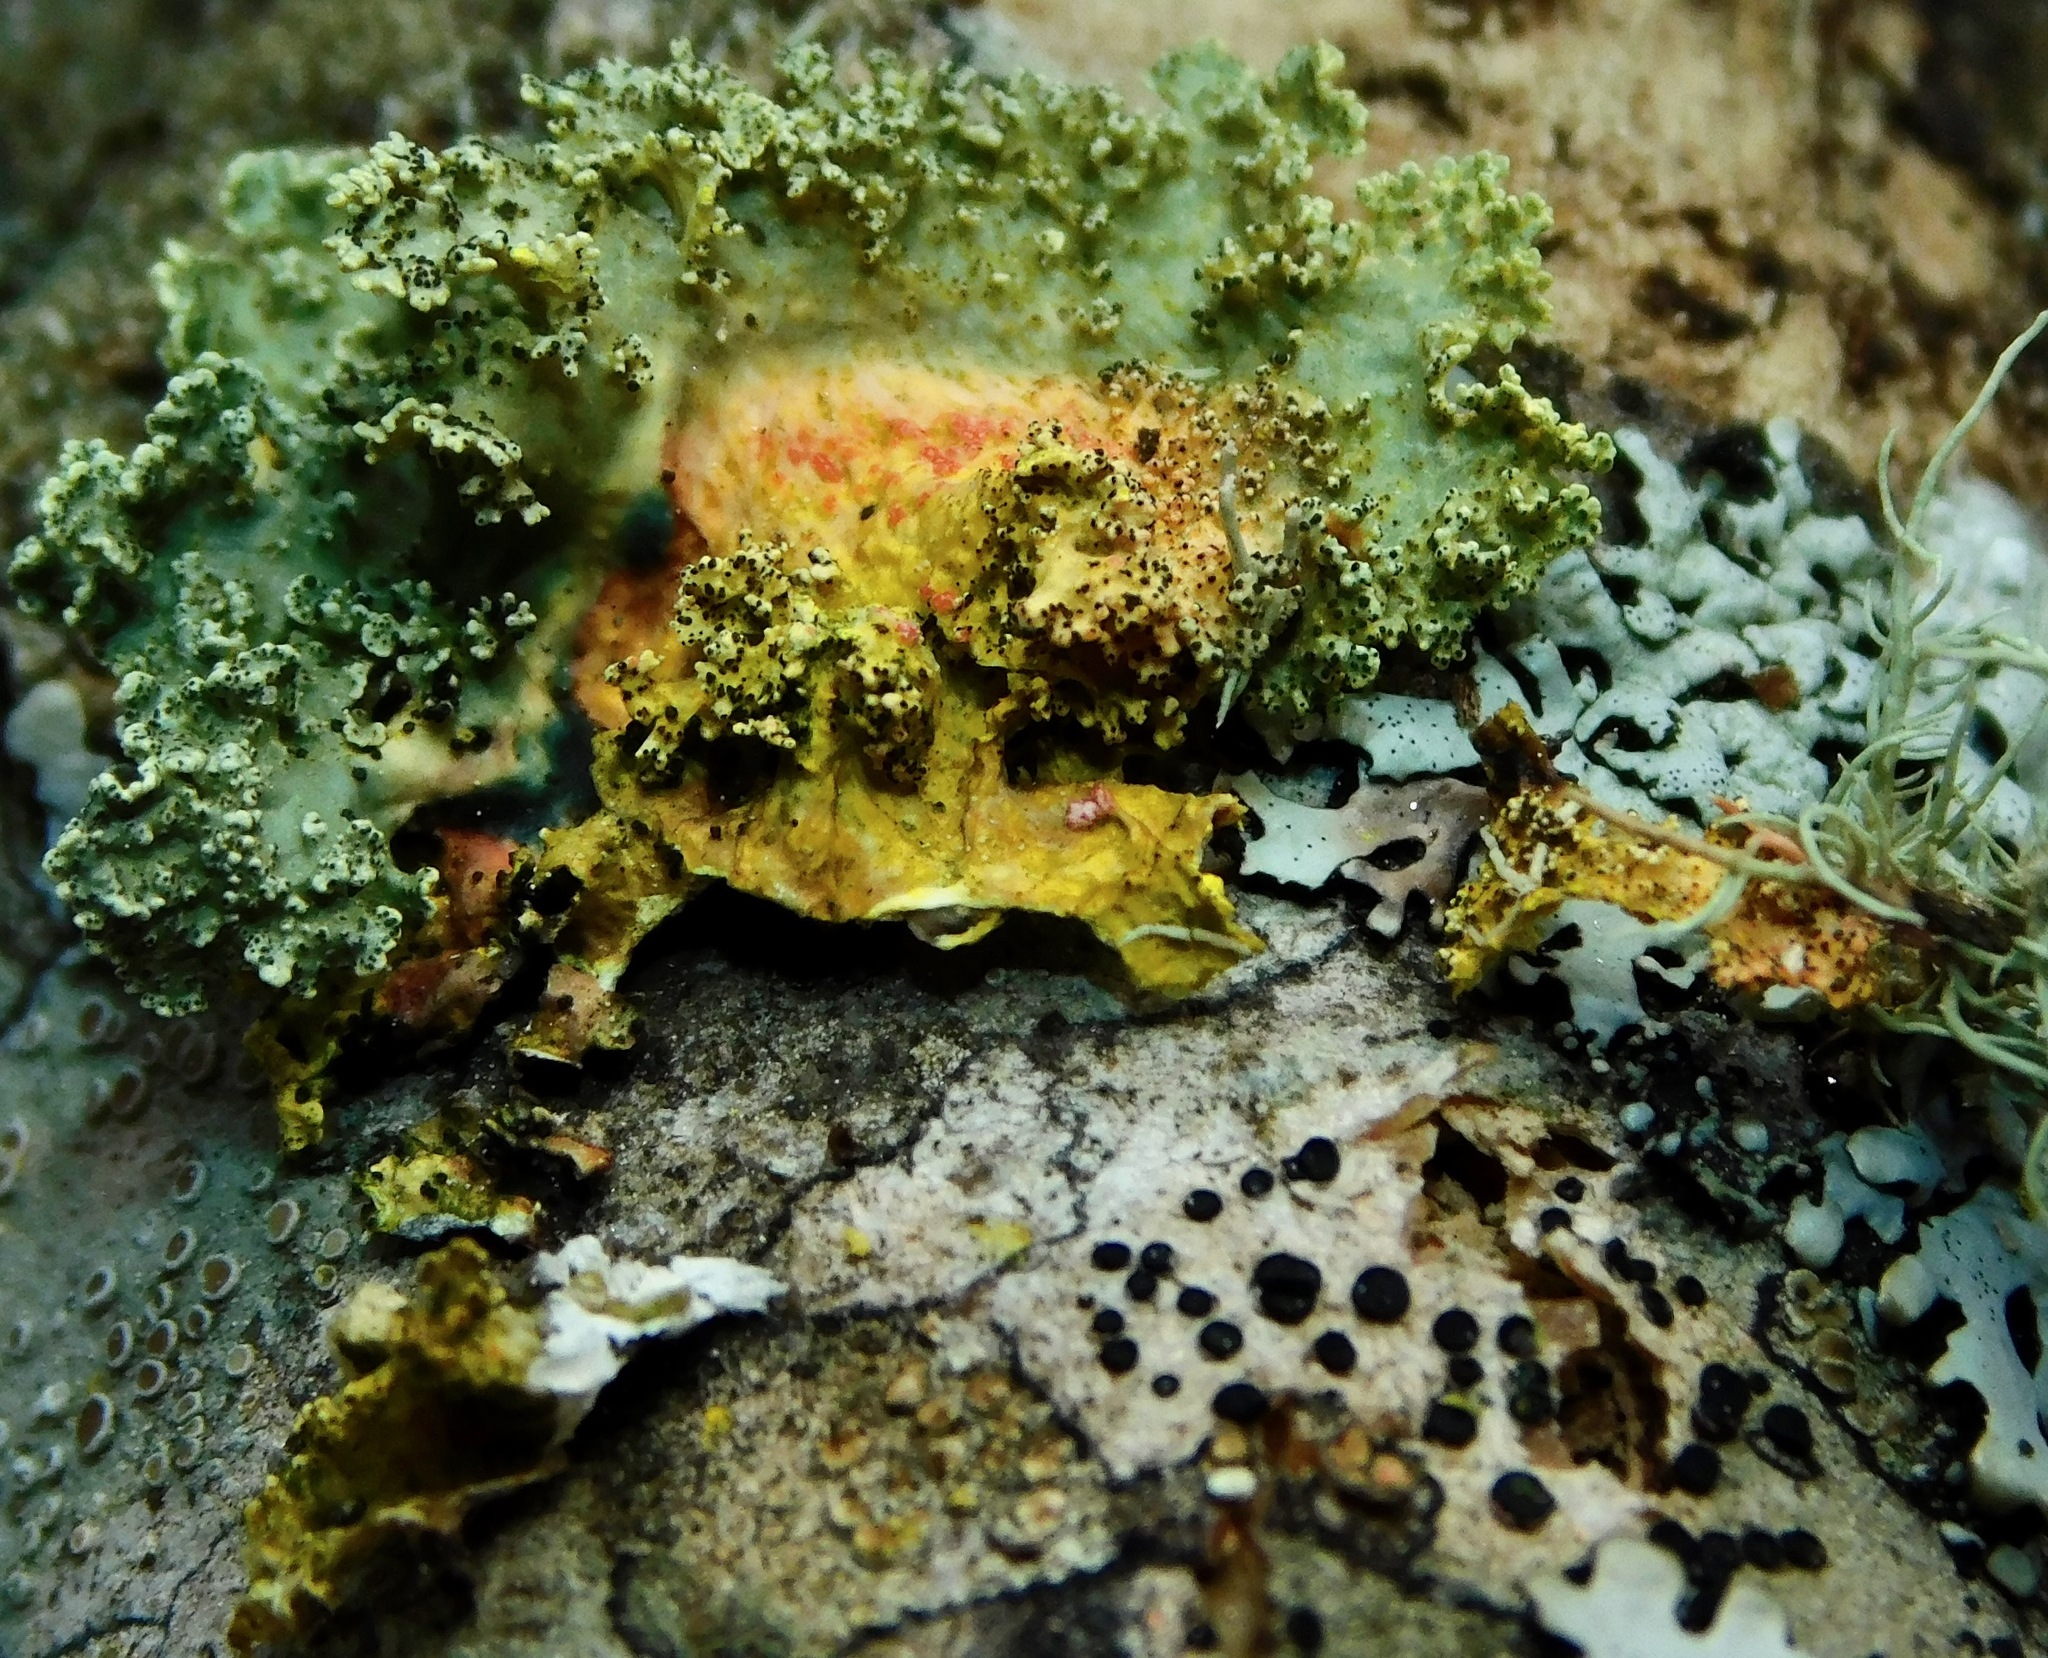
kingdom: Fungi
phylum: Basidiomycota
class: Agaricomycetes
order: Corticiales
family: Corticiaceae
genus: Marchandiomyces
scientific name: Marchandiomyces corallinus
